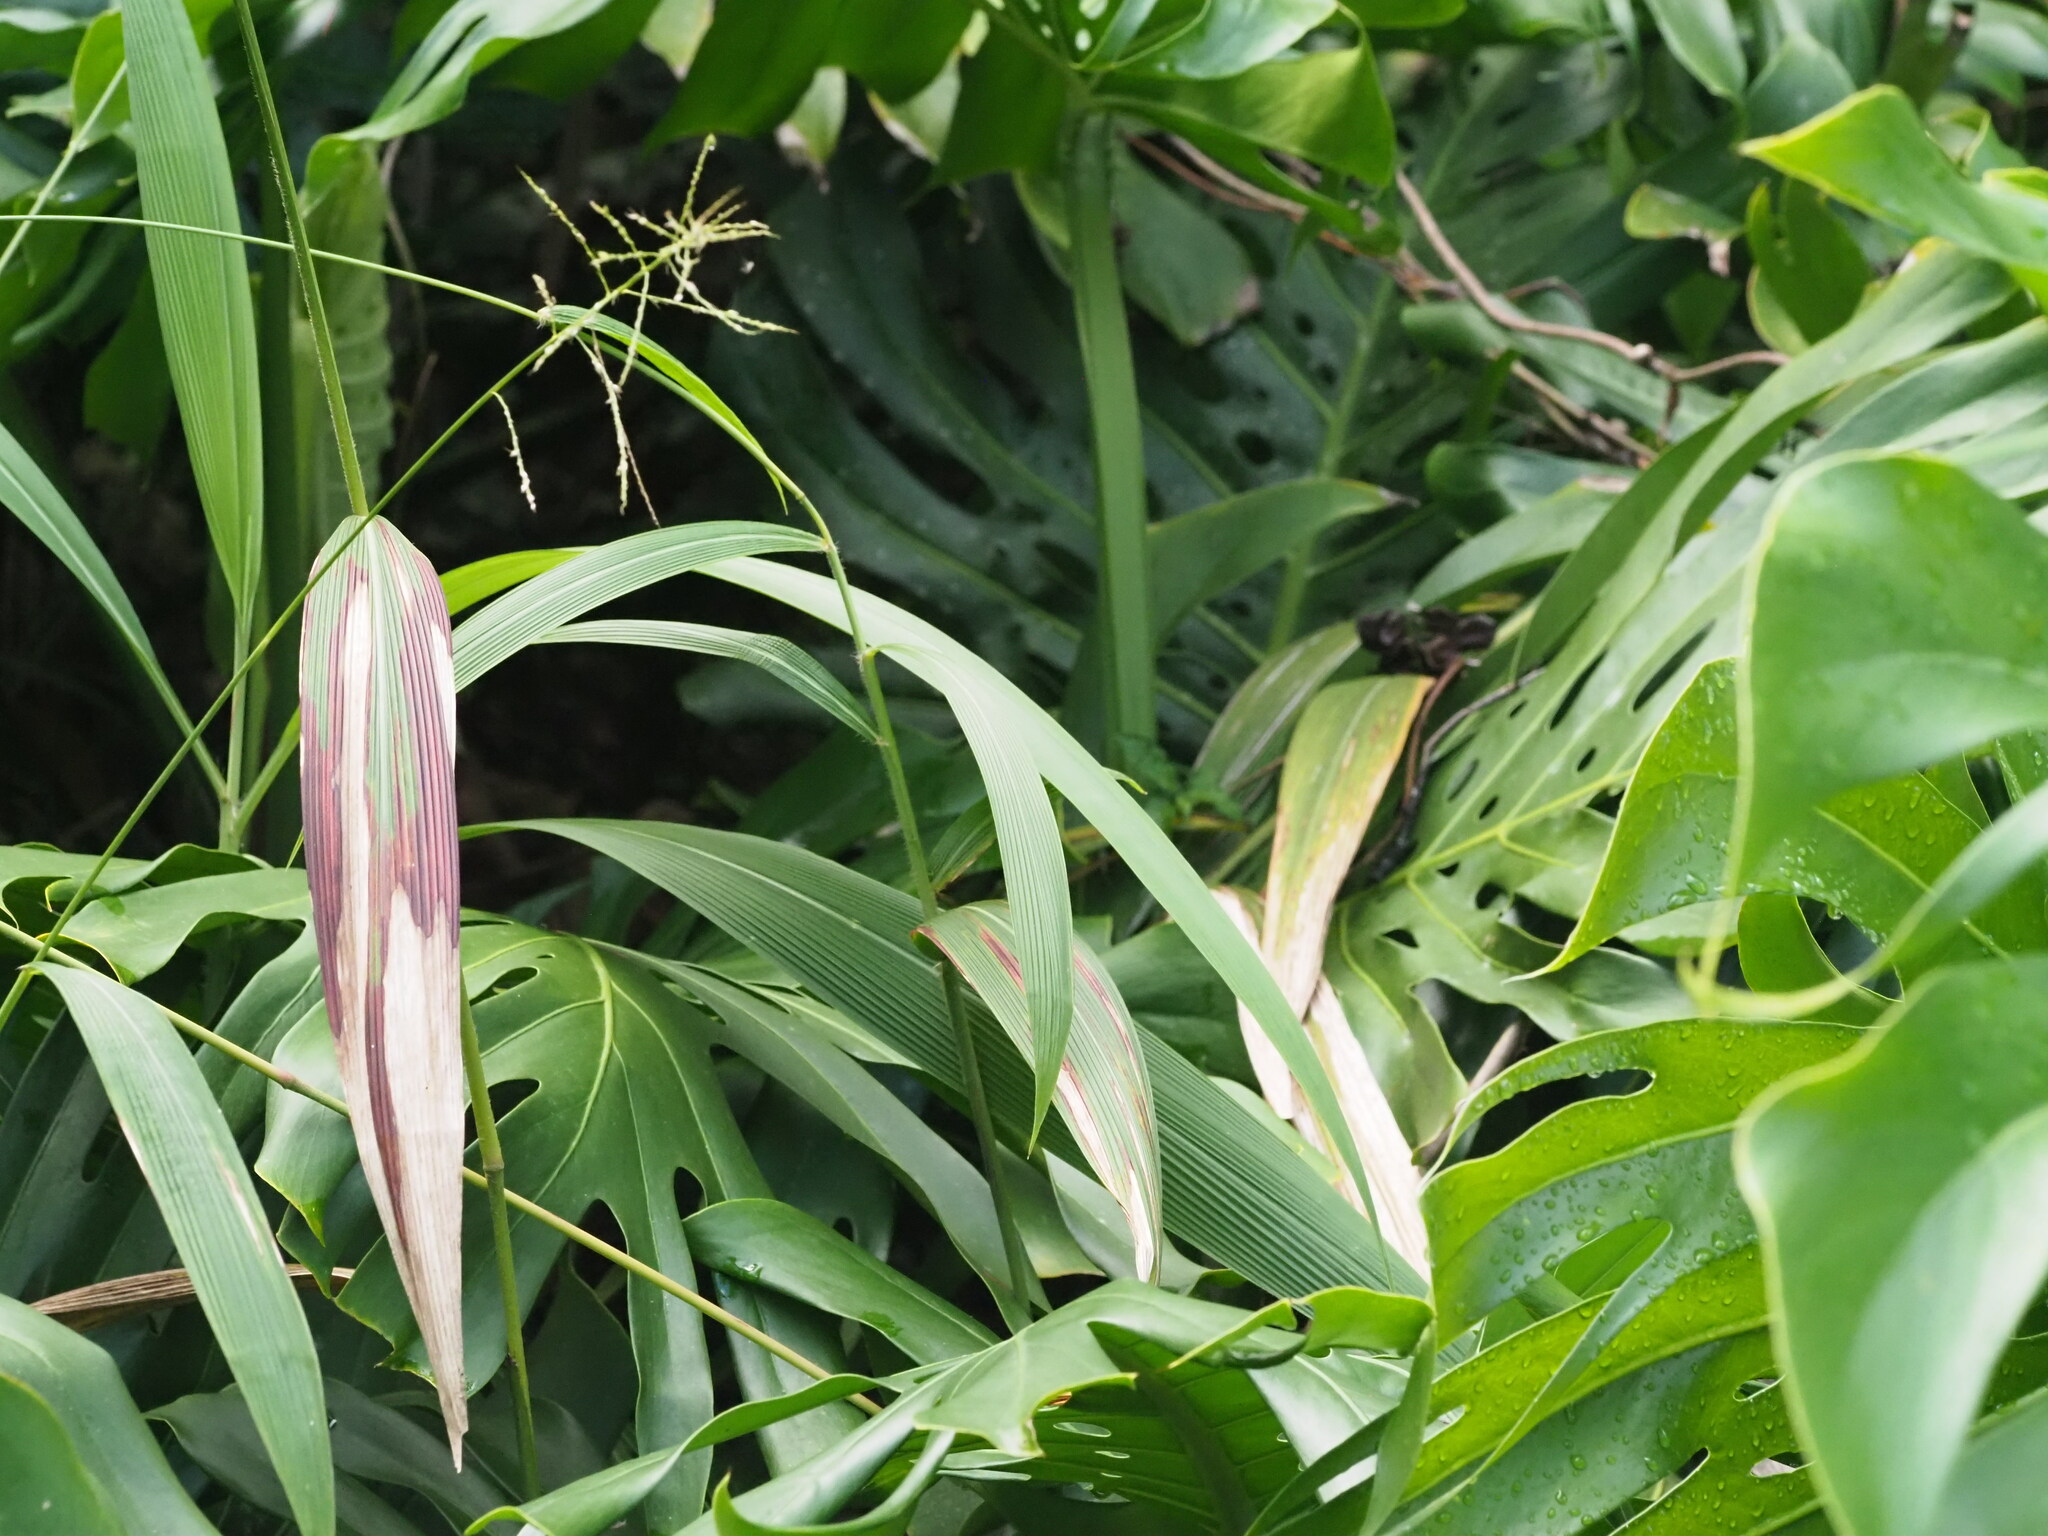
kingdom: Plantae
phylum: Tracheophyta
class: Liliopsida
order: Poales
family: Poaceae
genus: Setaria
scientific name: Setaria palmifolia
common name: Broadleaved bristlegrass
